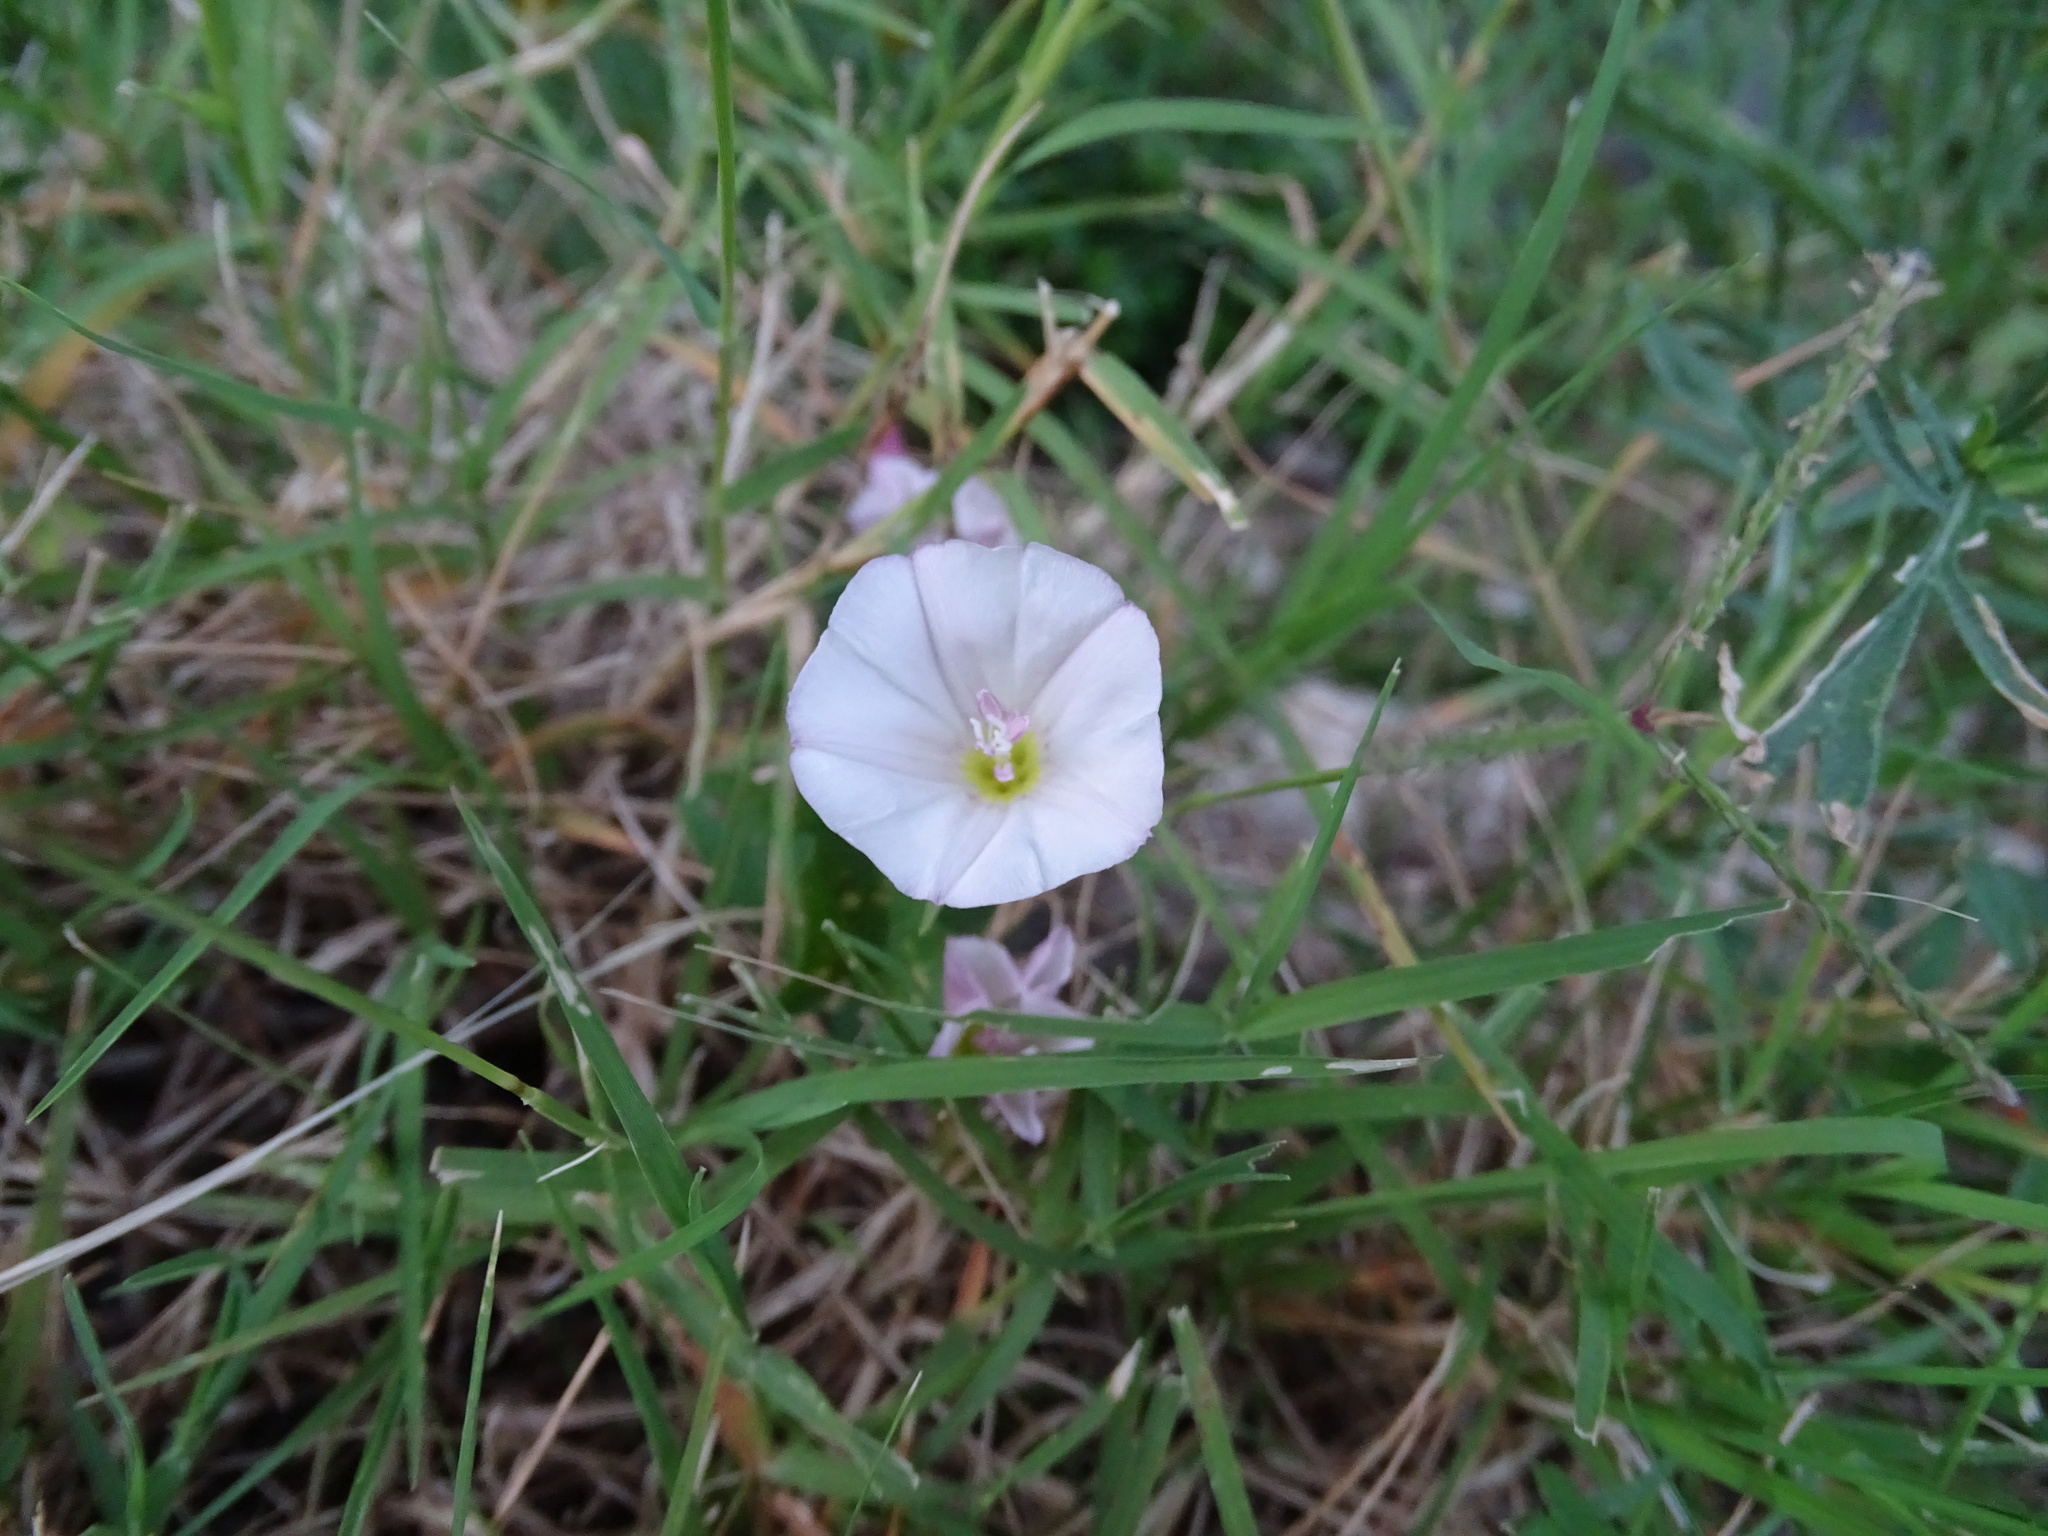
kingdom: Plantae
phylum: Tracheophyta
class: Magnoliopsida
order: Solanales
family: Convolvulaceae
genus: Convolvulus
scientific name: Convolvulus arvensis
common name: Field bindweed
